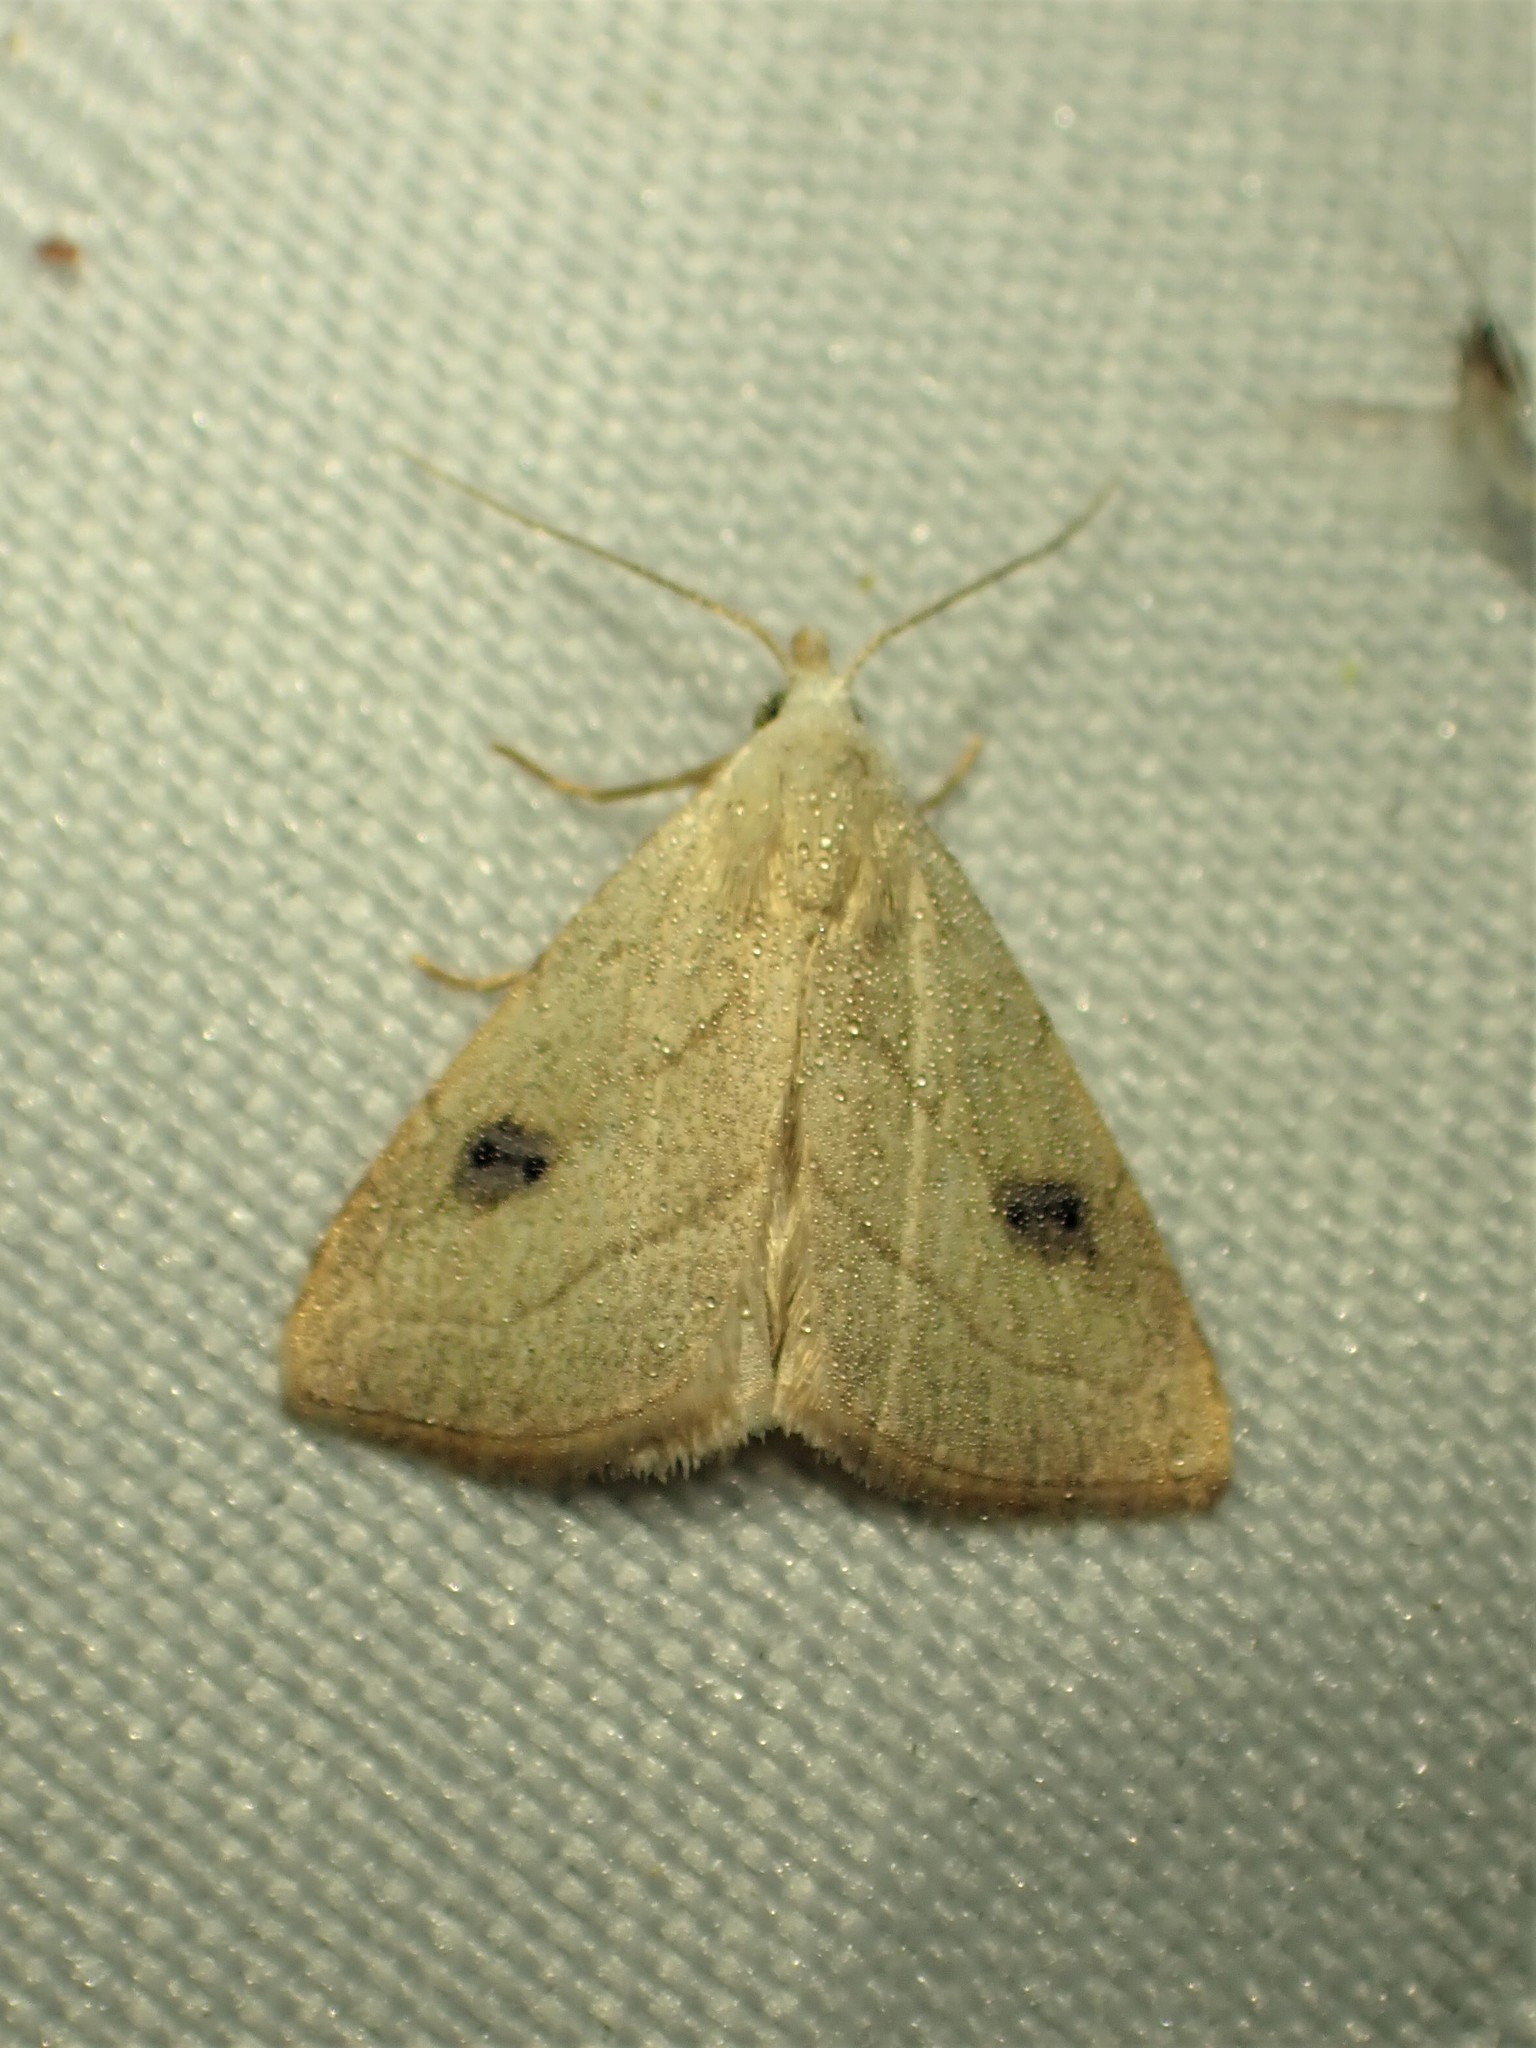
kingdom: Animalia
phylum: Arthropoda
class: Insecta
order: Lepidoptera
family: Erebidae
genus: Rivula
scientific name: Rivula propinqualis
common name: Spotted grass moth
